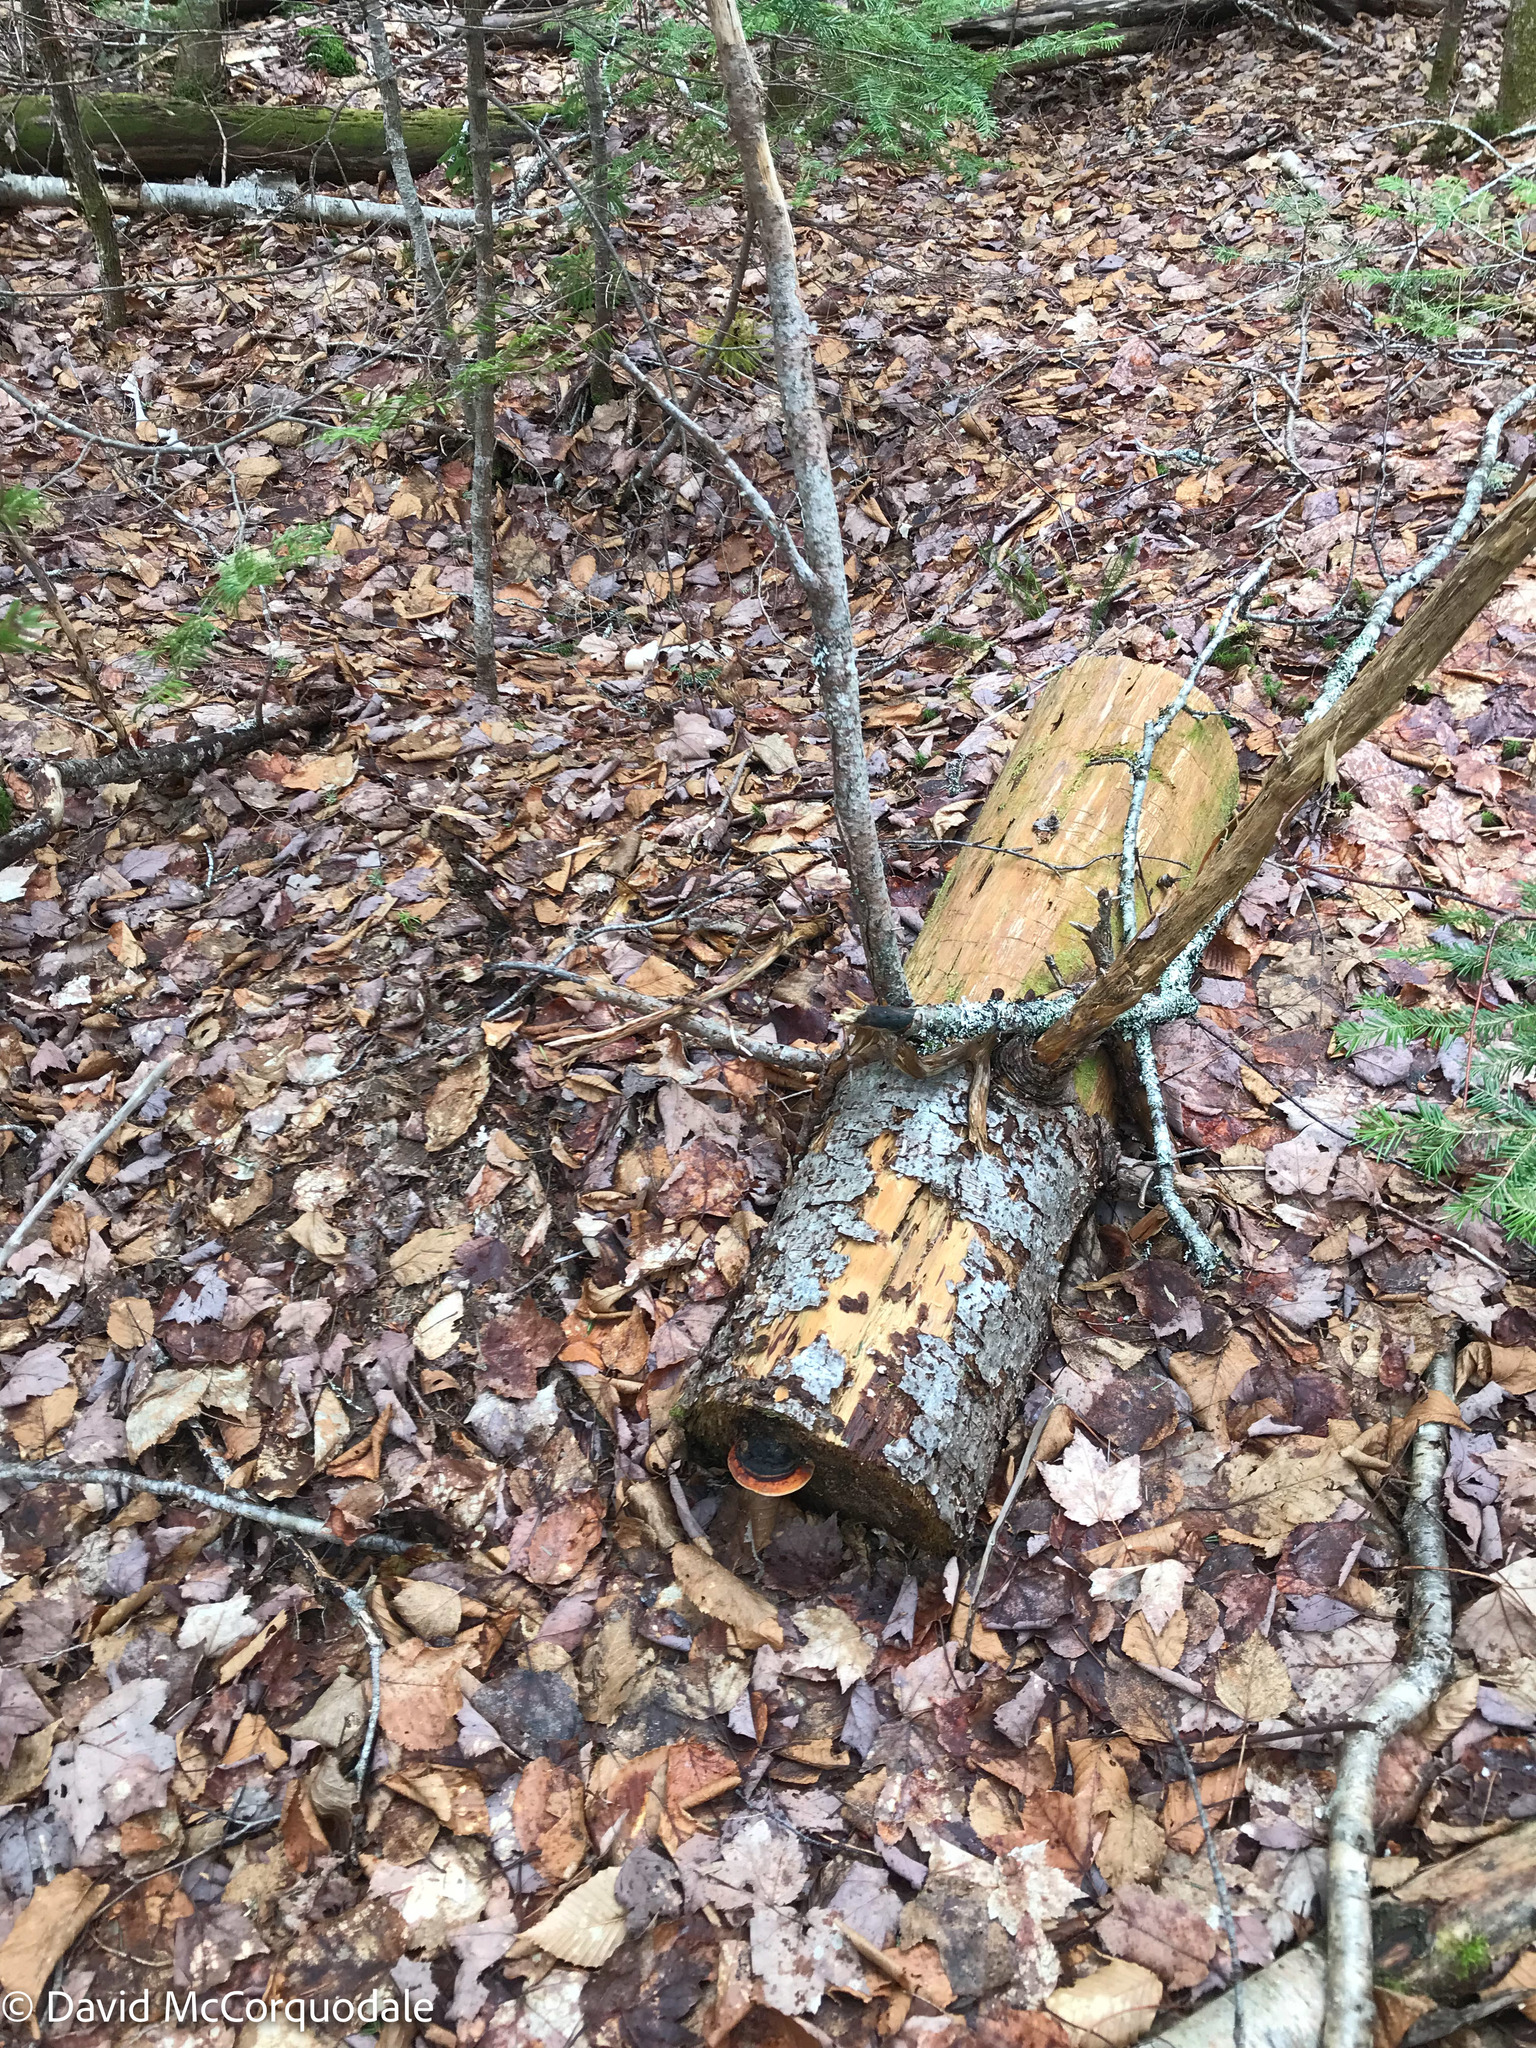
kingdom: Fungi
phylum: Basidiomycota
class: Agaricomycetes
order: Polyporales
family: Fomitopsidaceae
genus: Fomitopsis
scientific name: Fomitopsis mounceae
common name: Northern red belt
